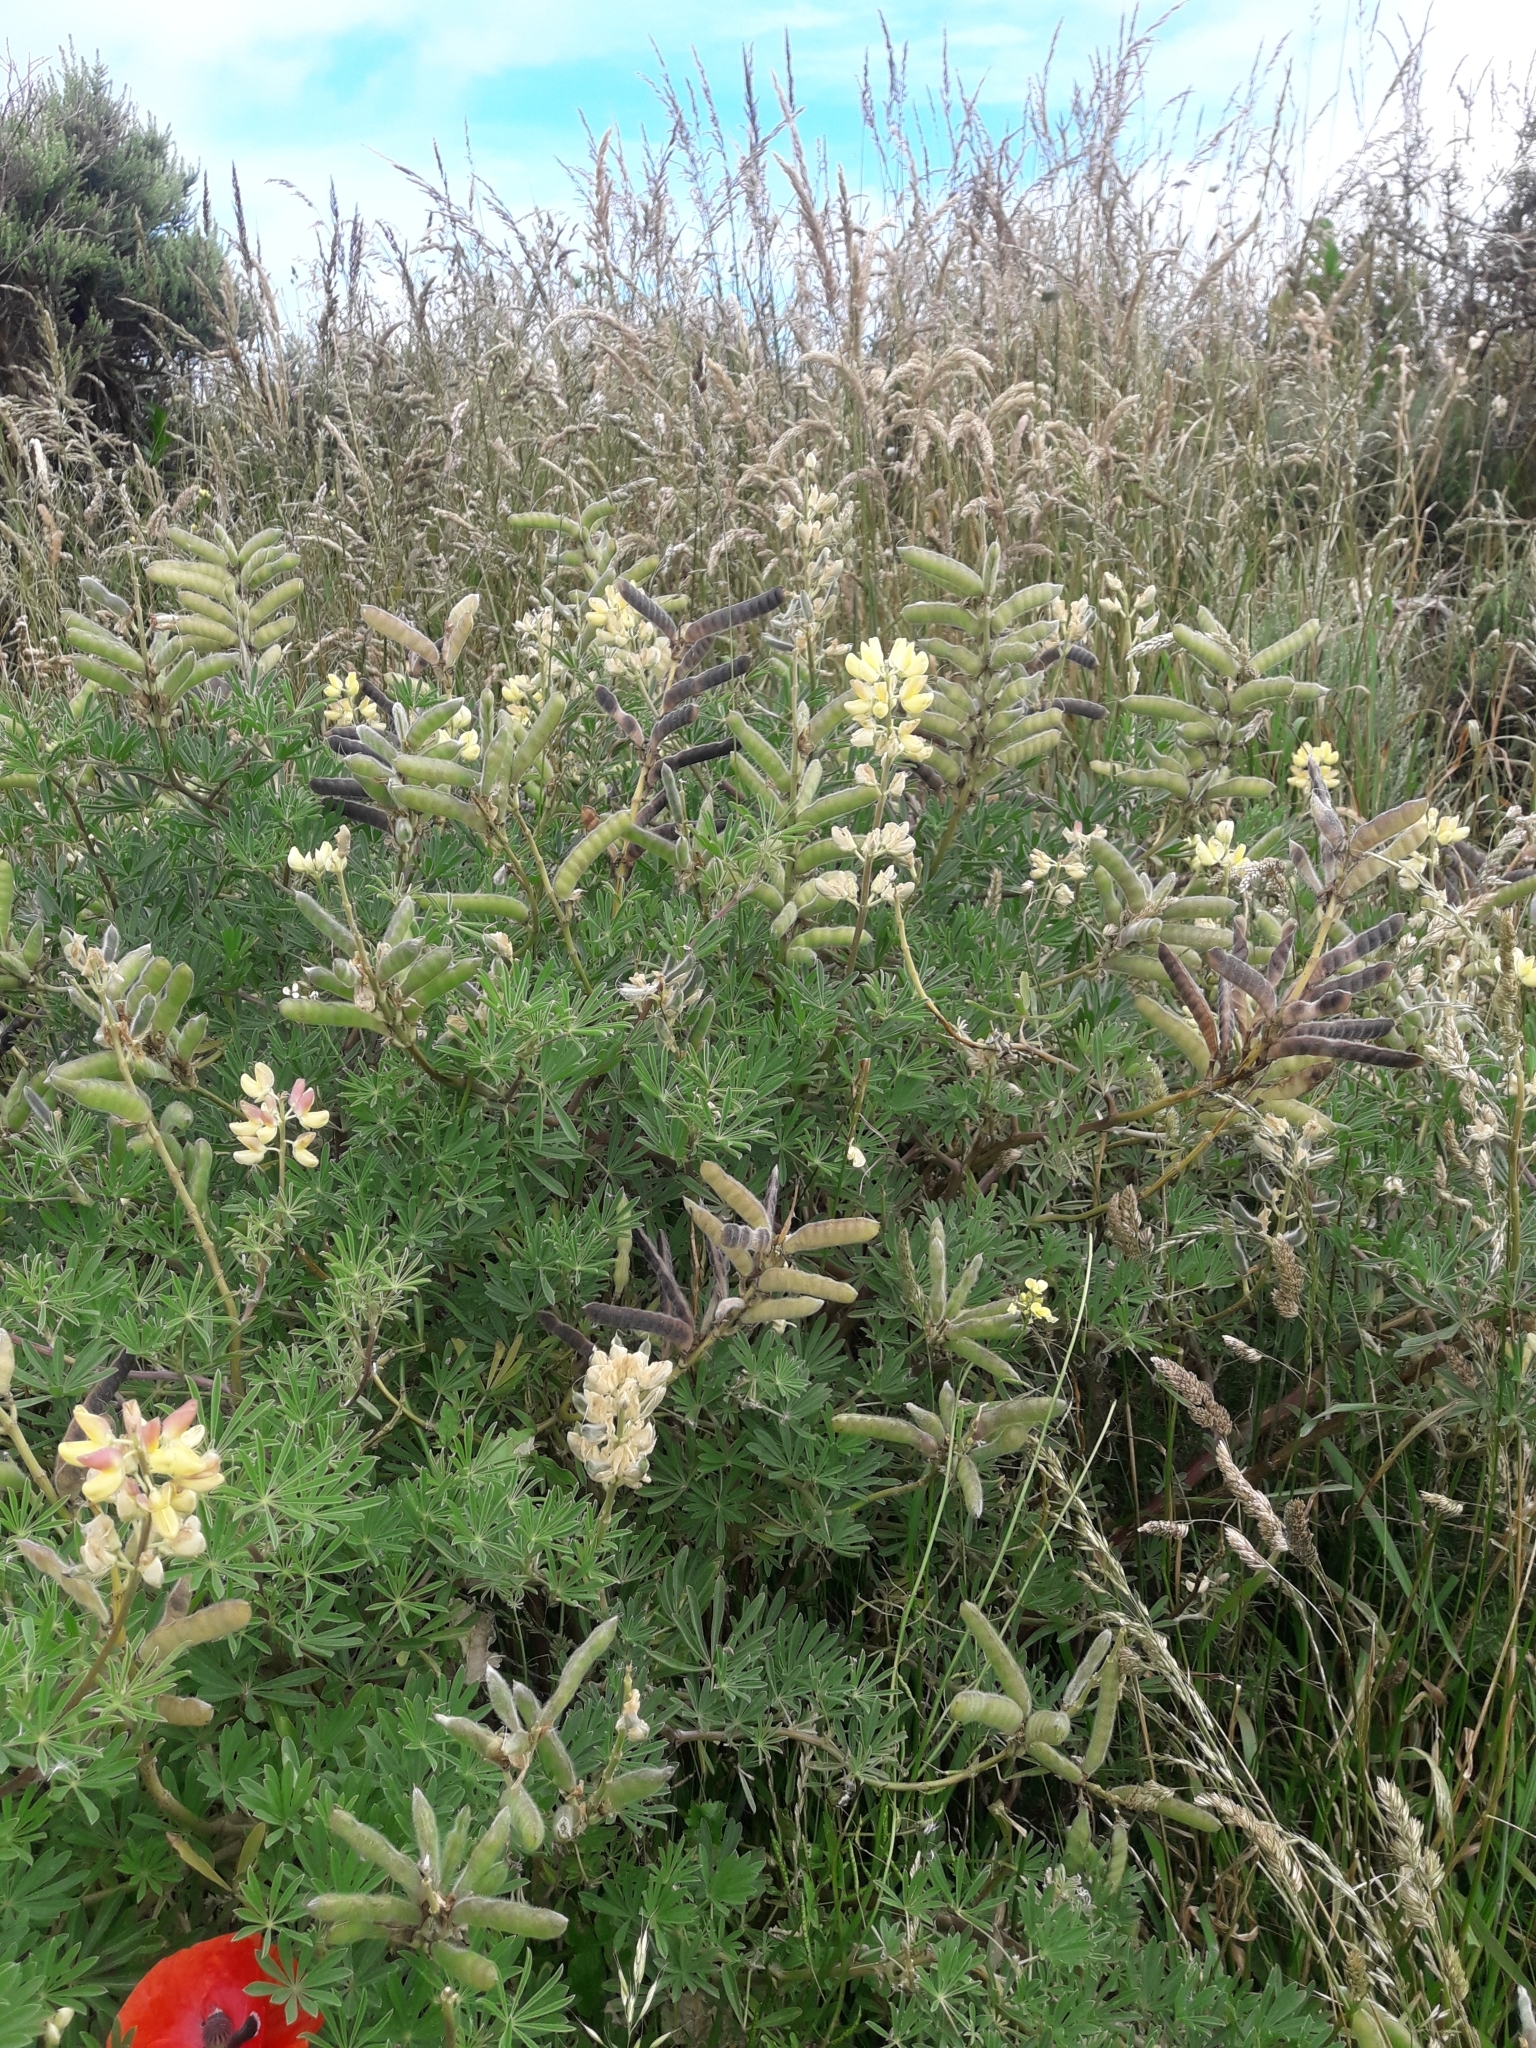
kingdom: Plantae
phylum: Tracheophyta
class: Magnoliopsida
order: Fabales
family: Fabaceae
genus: Lupinus
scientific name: Lupinus arboreus
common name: Yellow bush lupine
